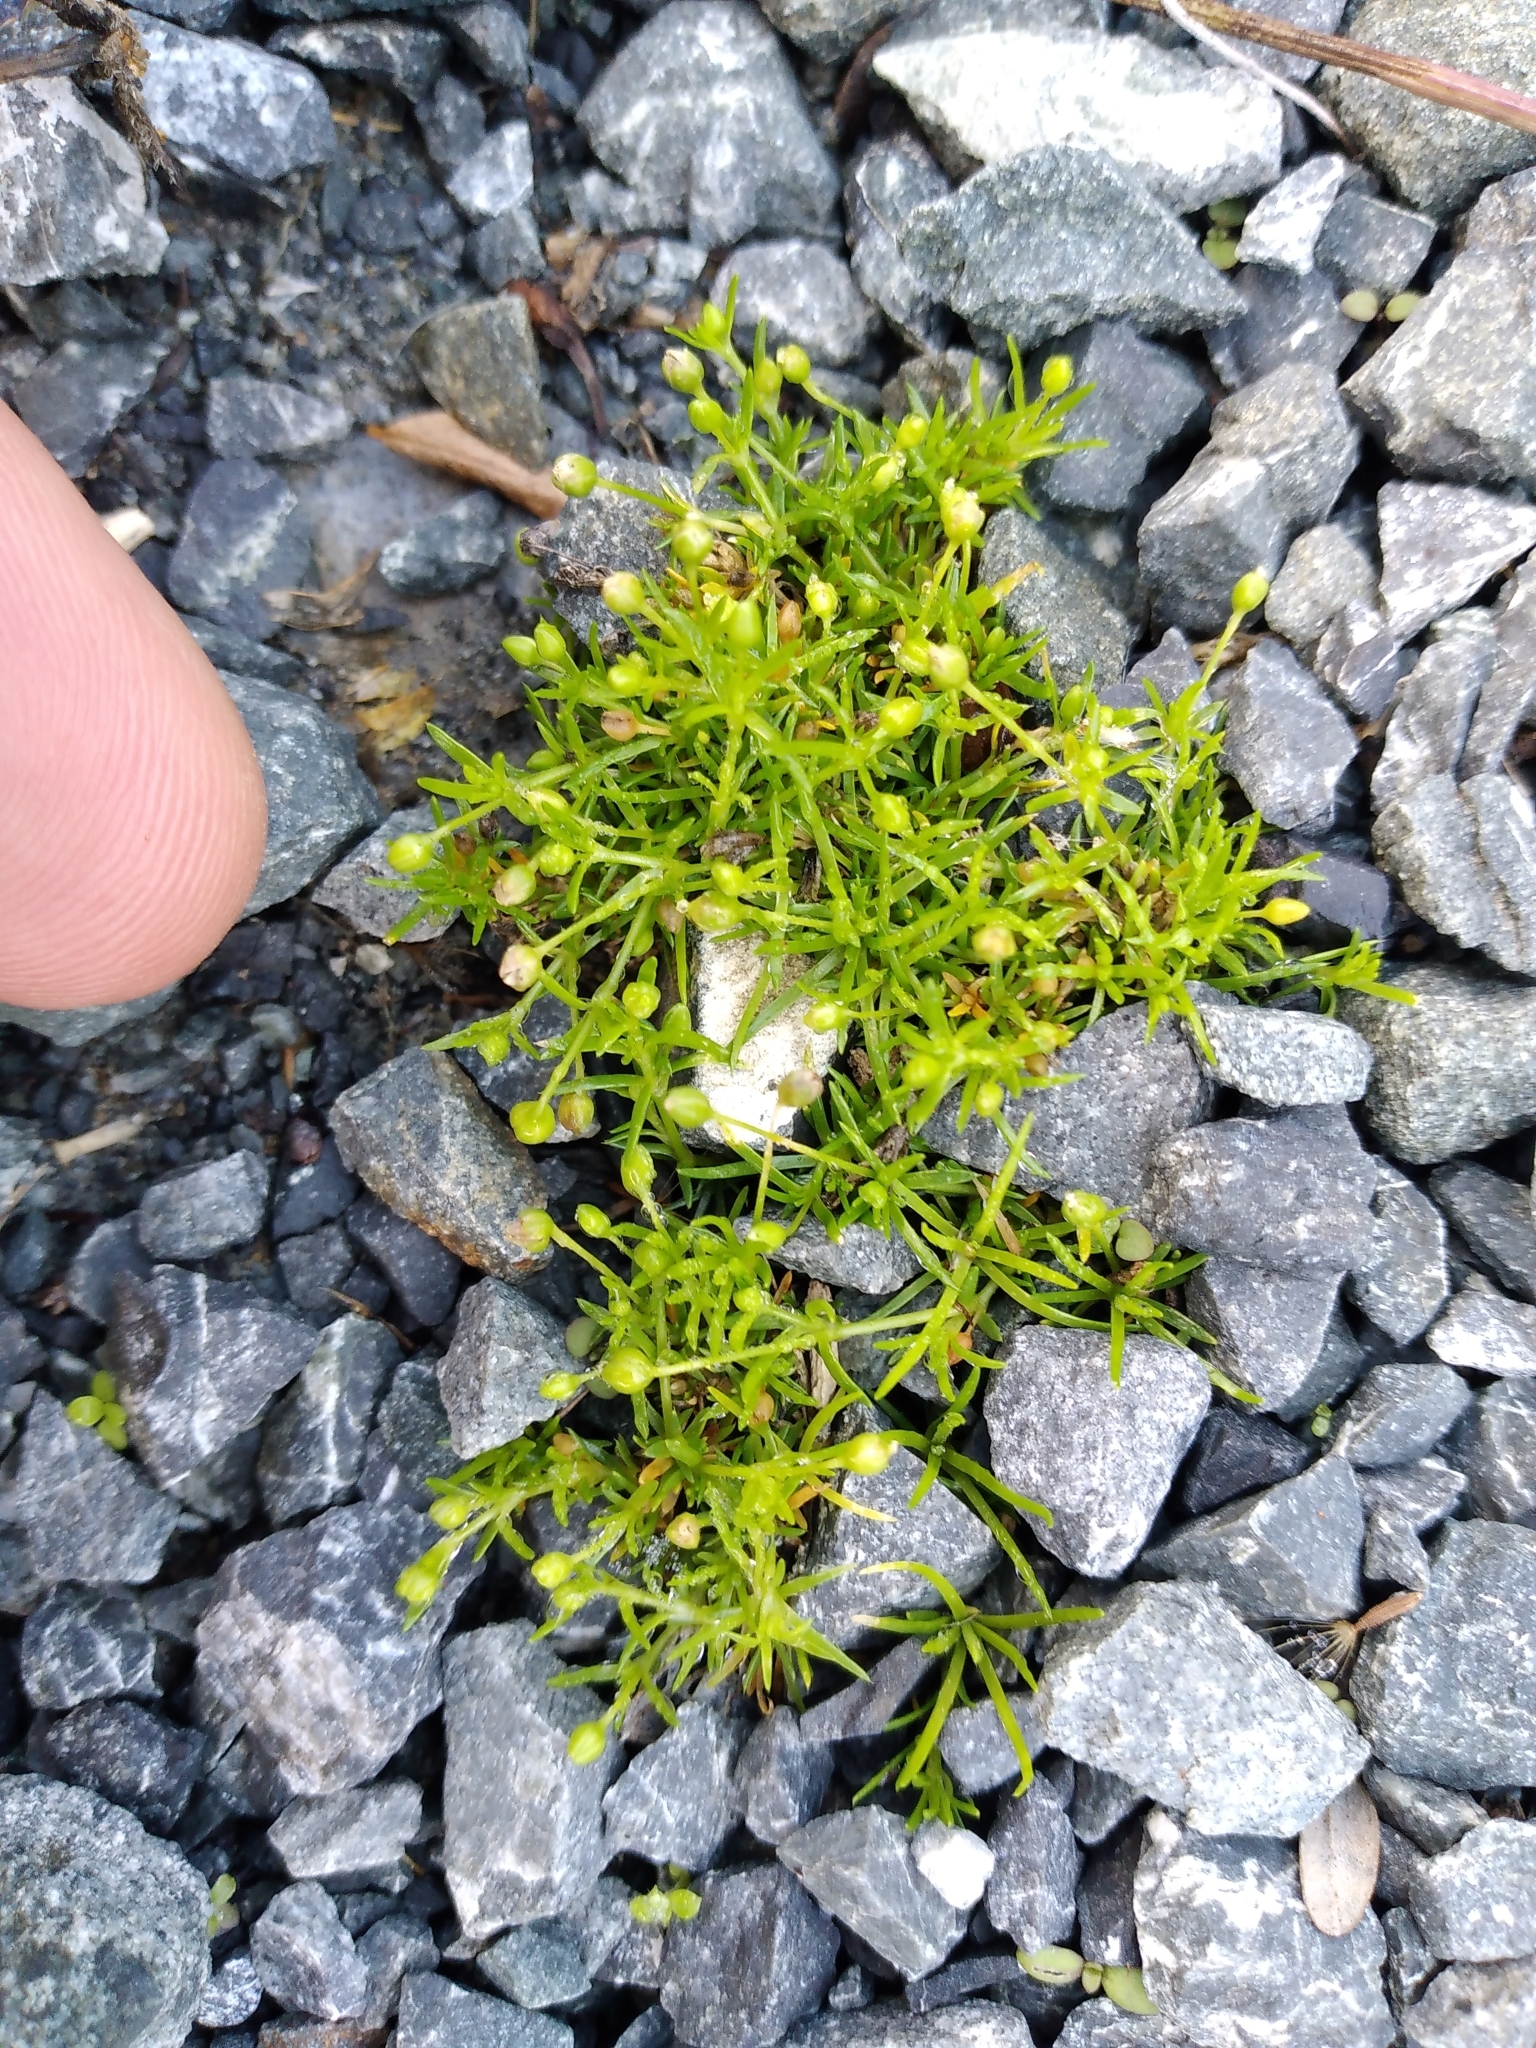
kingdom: Plantae
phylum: Tracheophyta
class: Magnoliopsida
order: Caryophyllales
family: Caryophyllaceae
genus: Sagina
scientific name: Sagina procumbens
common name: Procumbent pearlwort
